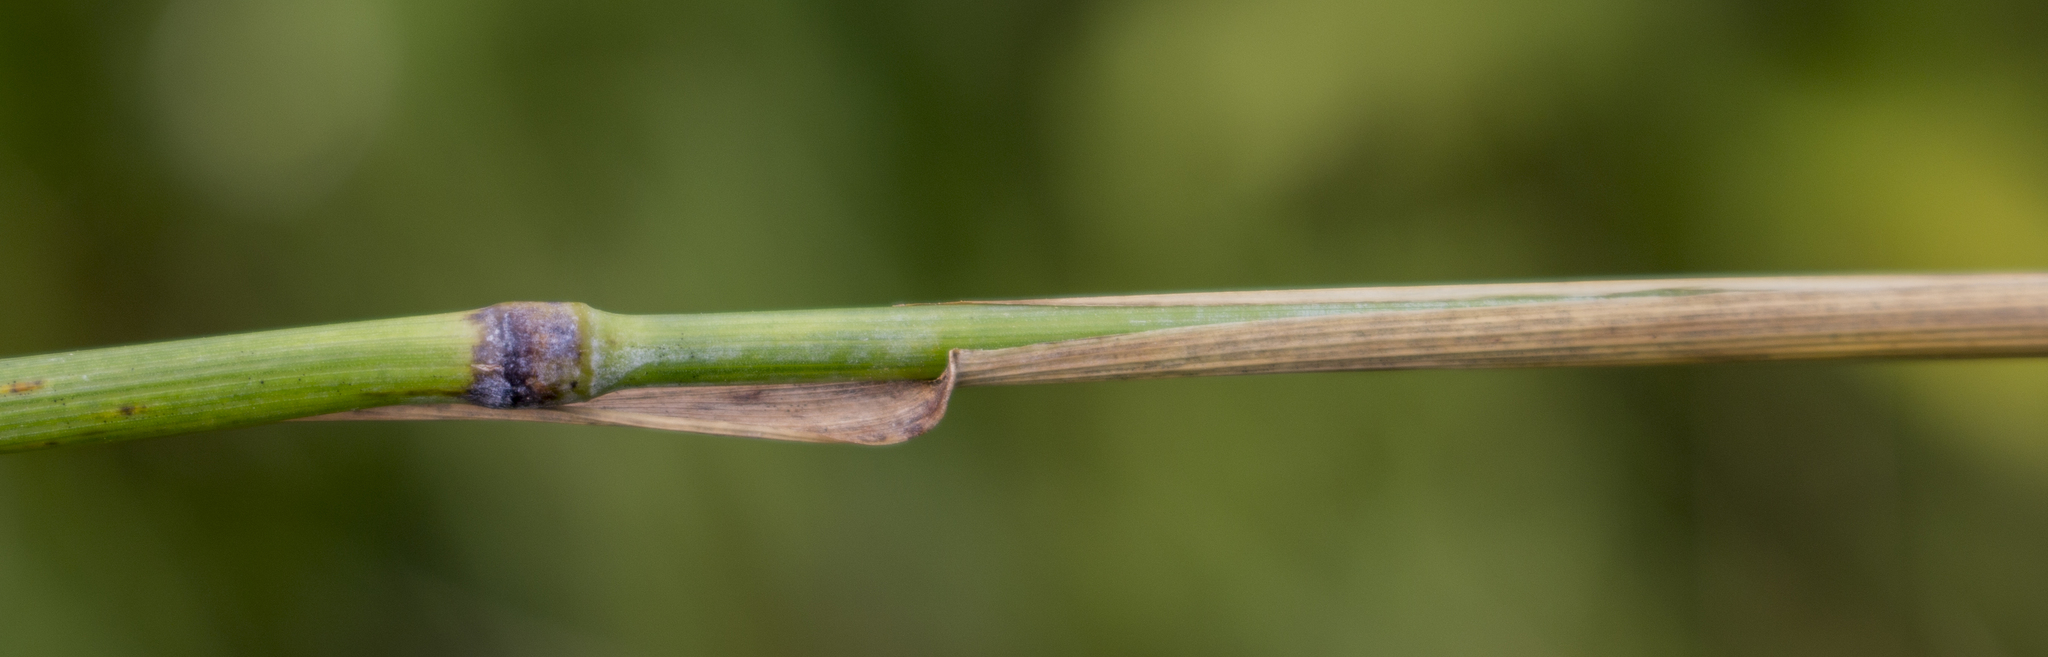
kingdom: Plantae
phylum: Tracheophyta
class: Liliopsida
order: Poales
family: Poaceae
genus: Elymus
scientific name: Elymus violaceus
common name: Arctic wheatgrass
